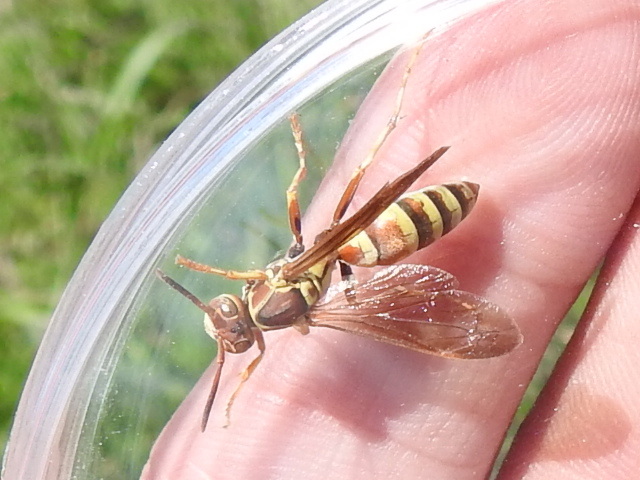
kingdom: Animalia
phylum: Arthropoda
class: Insecta
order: Hymenoptera
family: Eumenidae
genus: Polistes
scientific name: Polistes dorsalis
